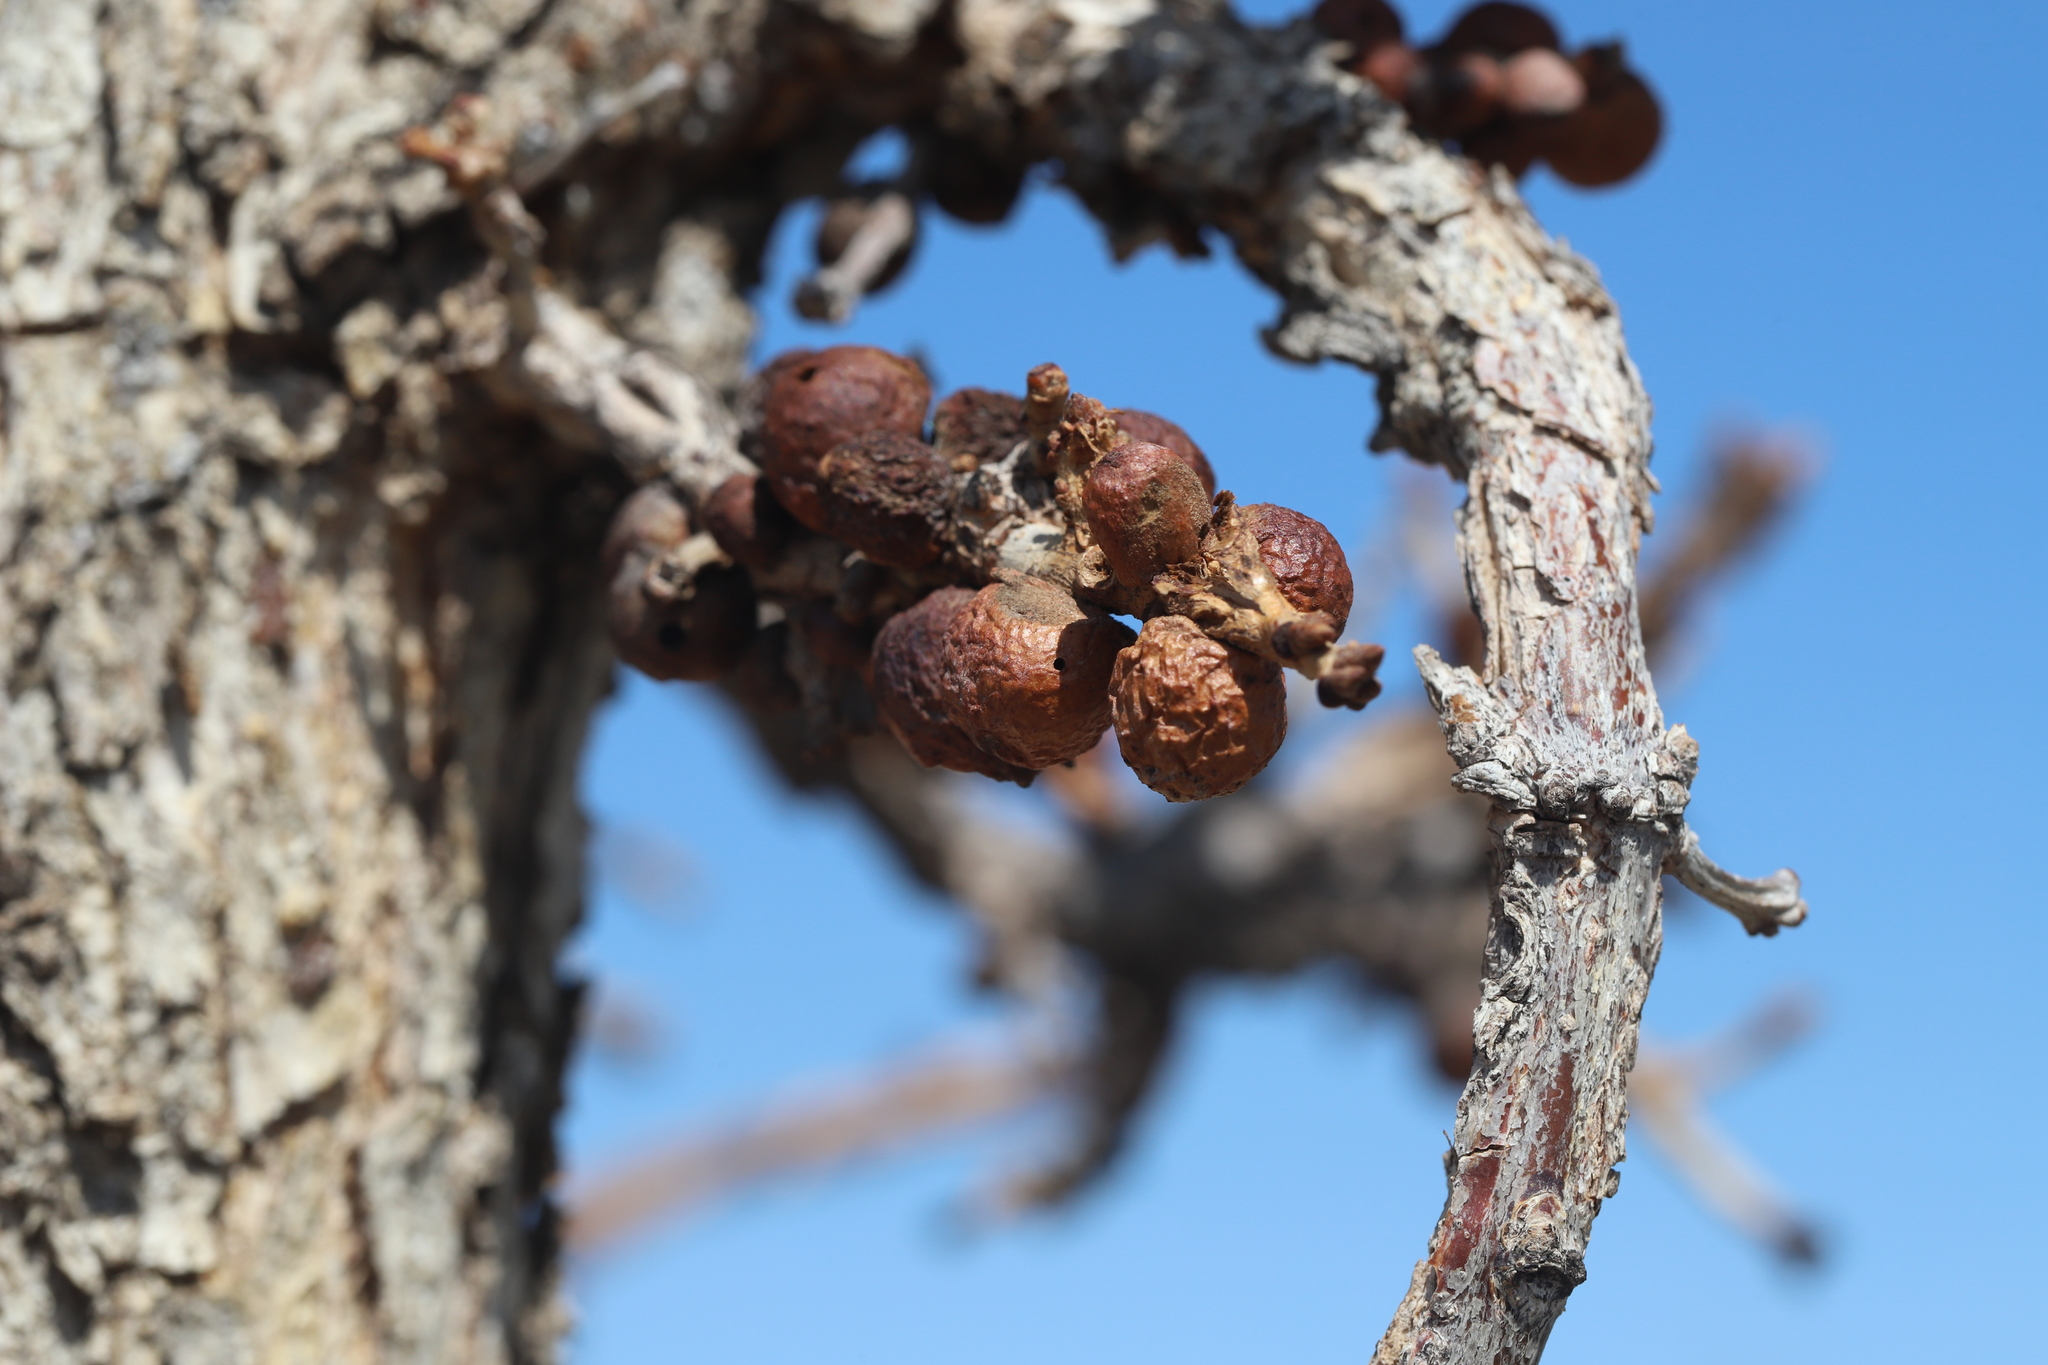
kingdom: Animalia
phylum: Arthropoda
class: Insecta
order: Hymenoptera
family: Cynipidae
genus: Disholcaspis
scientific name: Disholcaspis
